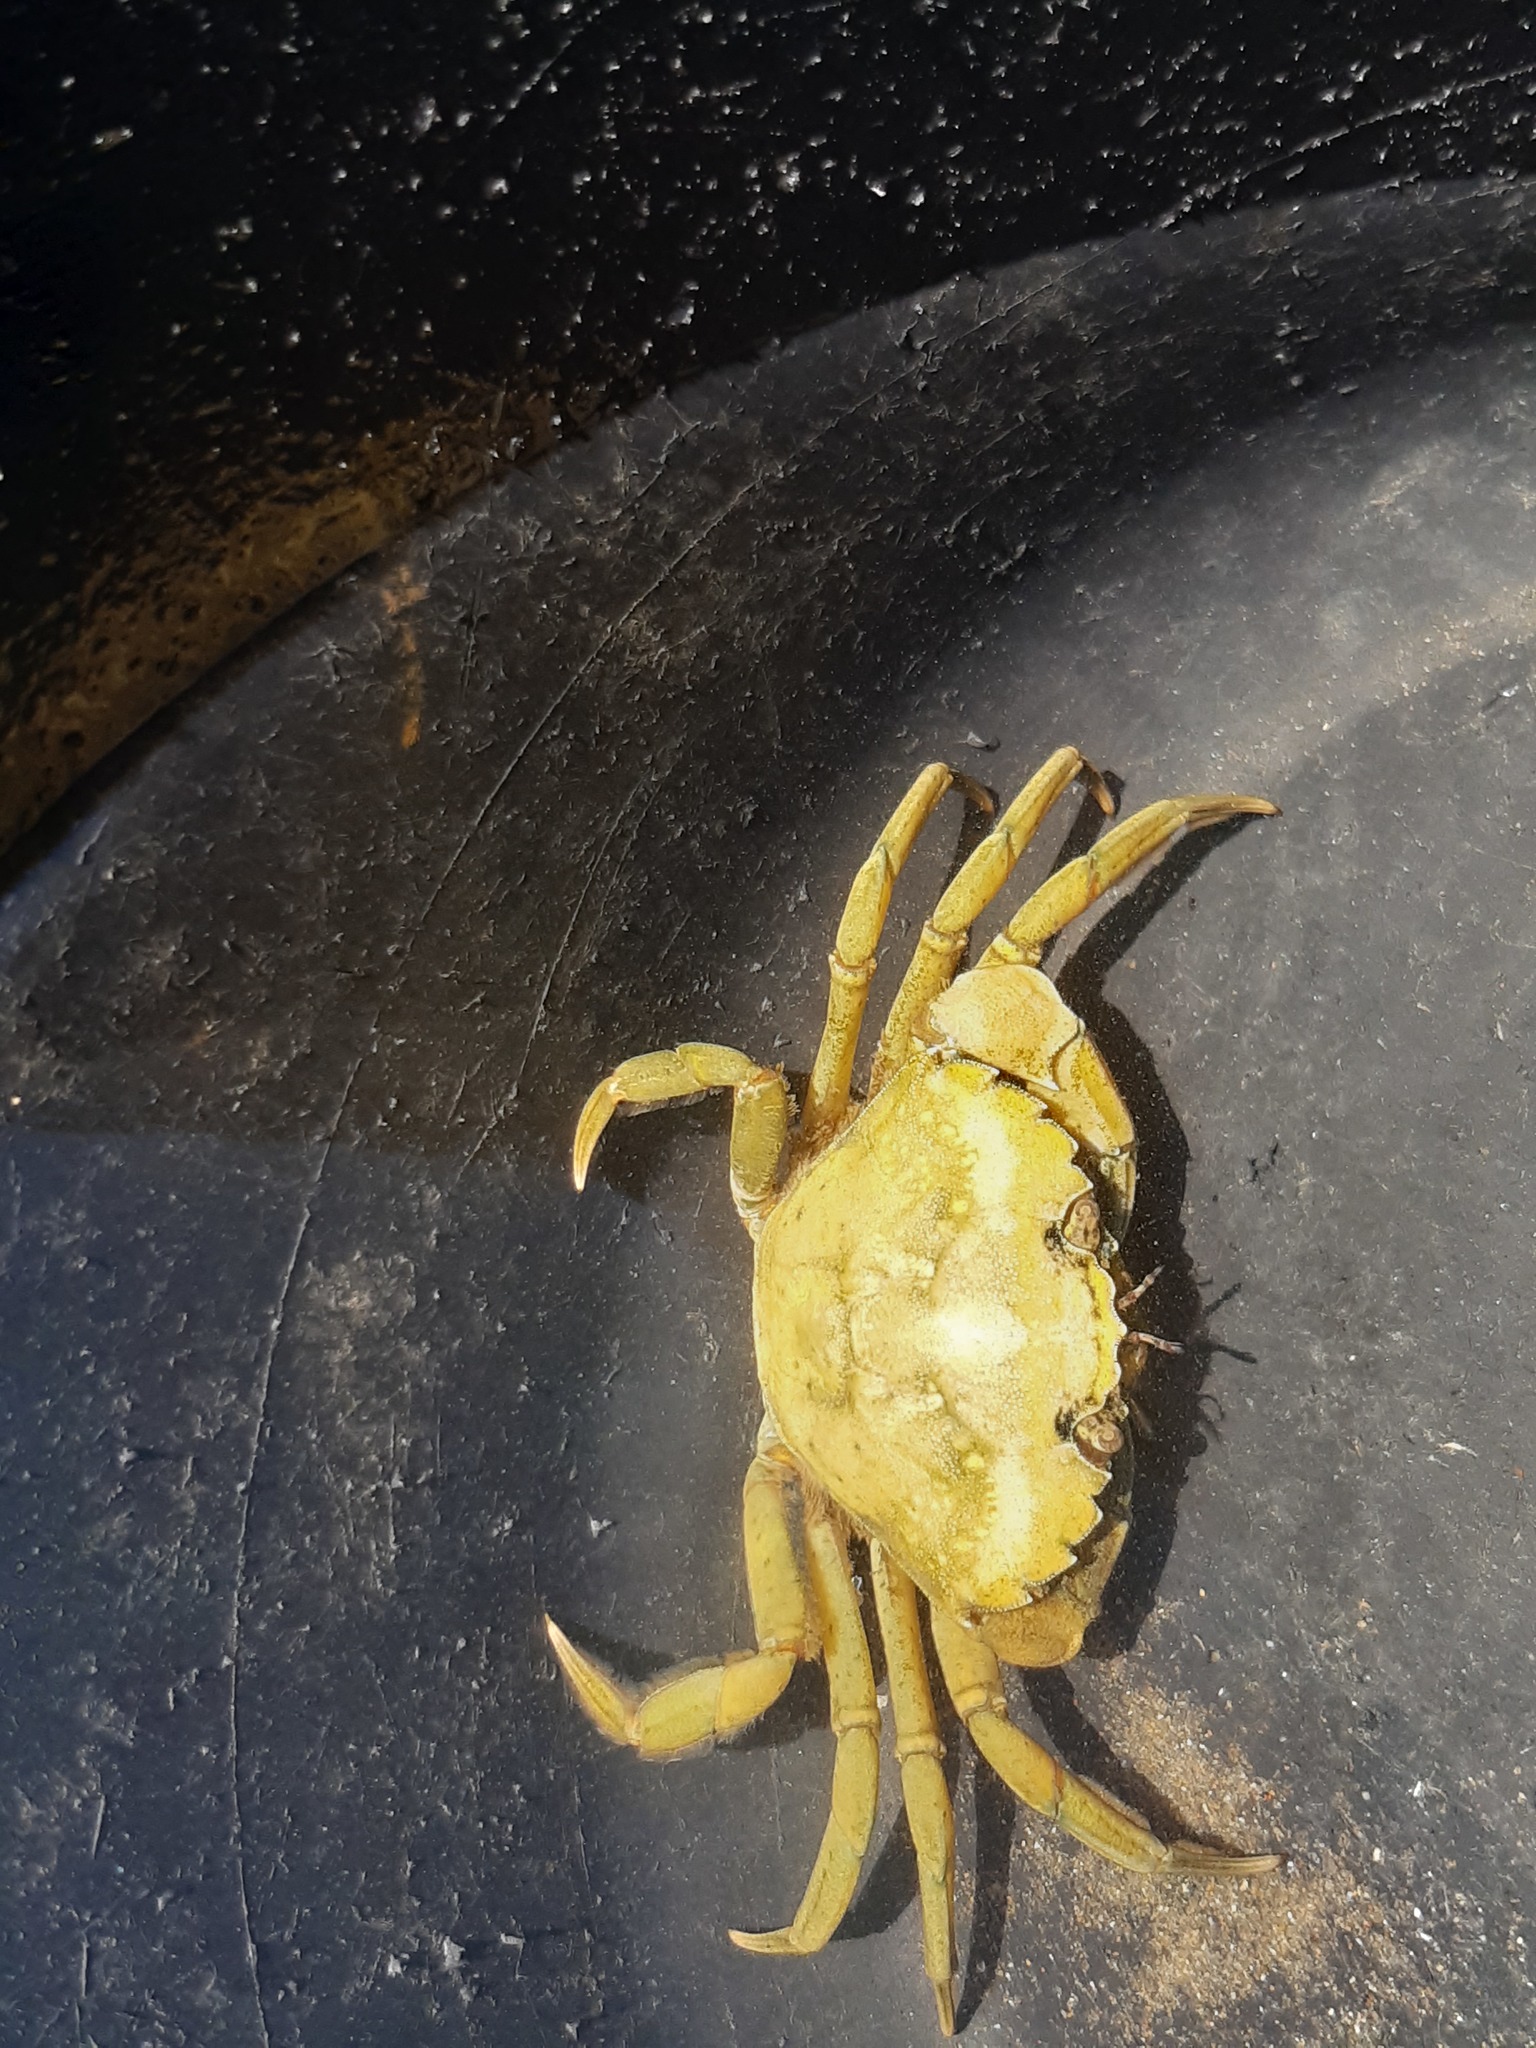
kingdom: Animalia
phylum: Arthropoda
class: Malacostraca
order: Decapoda
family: Carcinidae
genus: Carcinus
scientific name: Carcinus maenas
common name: European green crab
